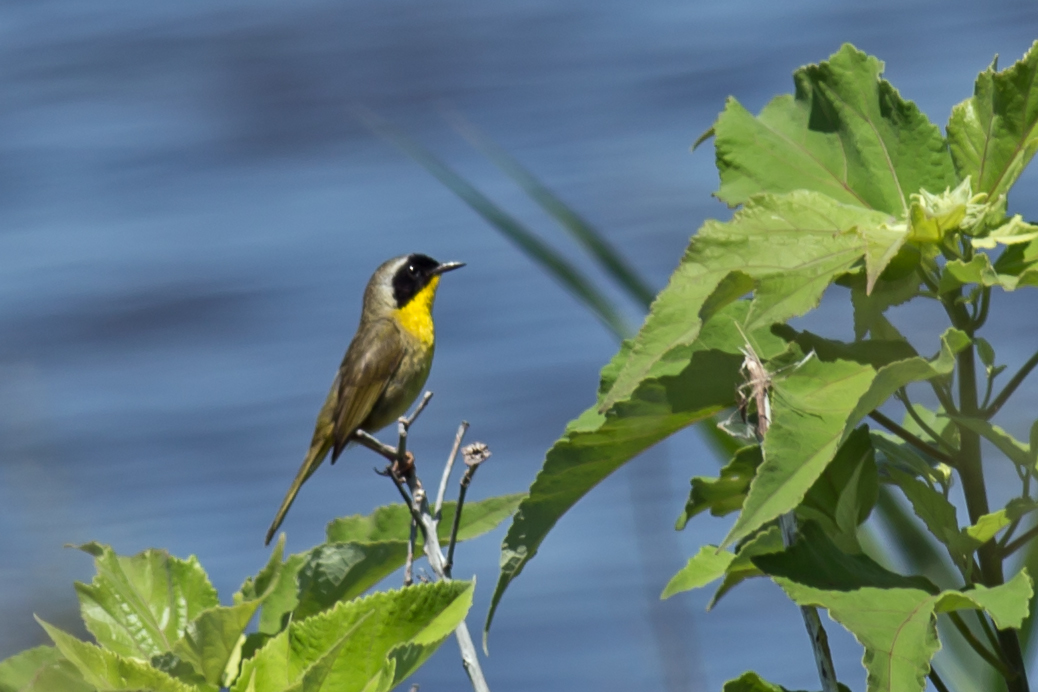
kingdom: Animalia
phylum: Chordata
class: Aves
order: Passeriformes
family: Parulidae
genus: Geothlypis
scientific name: Geothlypis trichas
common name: Common yellowthroat
